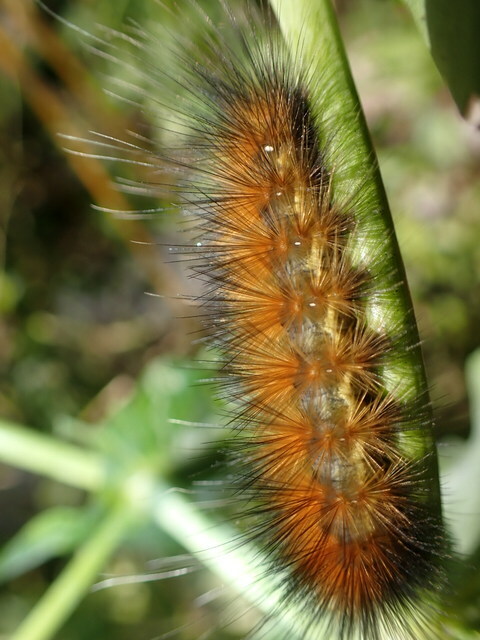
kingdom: Animalia
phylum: Arthropoda
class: Insecta
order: Lepidoptera
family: Erebidae
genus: Spilosoma
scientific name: Spilosoma virginica
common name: Virginia tiger moth
